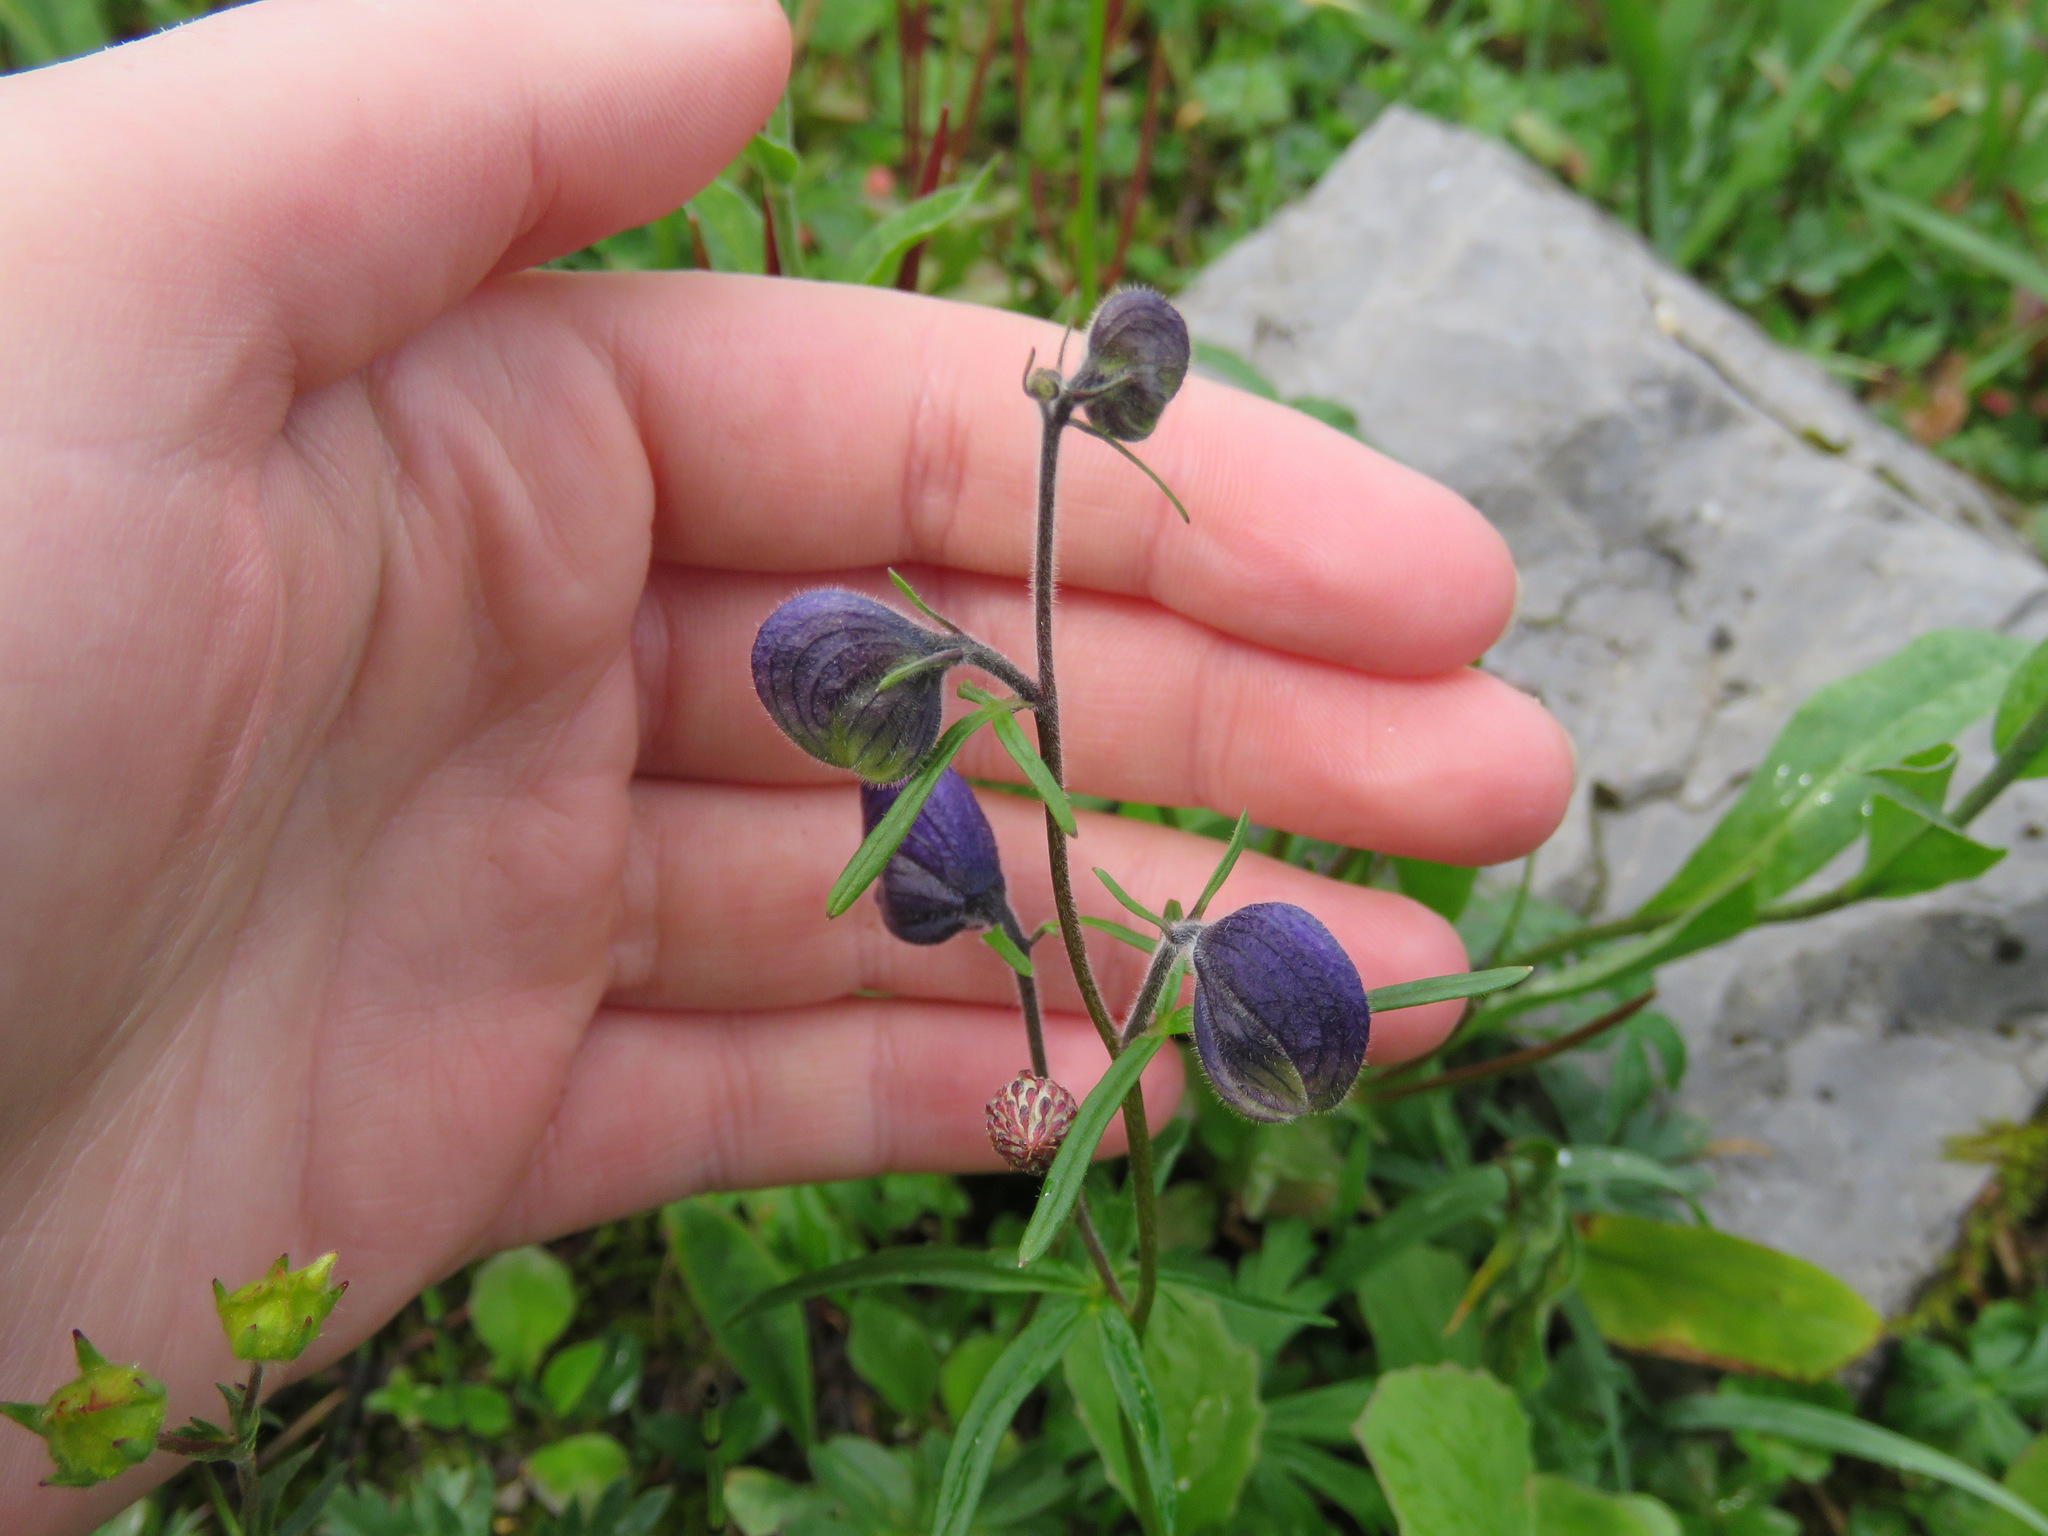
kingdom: Plantae
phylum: Tracheophyta
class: Magnoliopsida
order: Ranunculales
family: Ranunculaceae
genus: Aconitum
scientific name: Aconitum delphiniifolium
